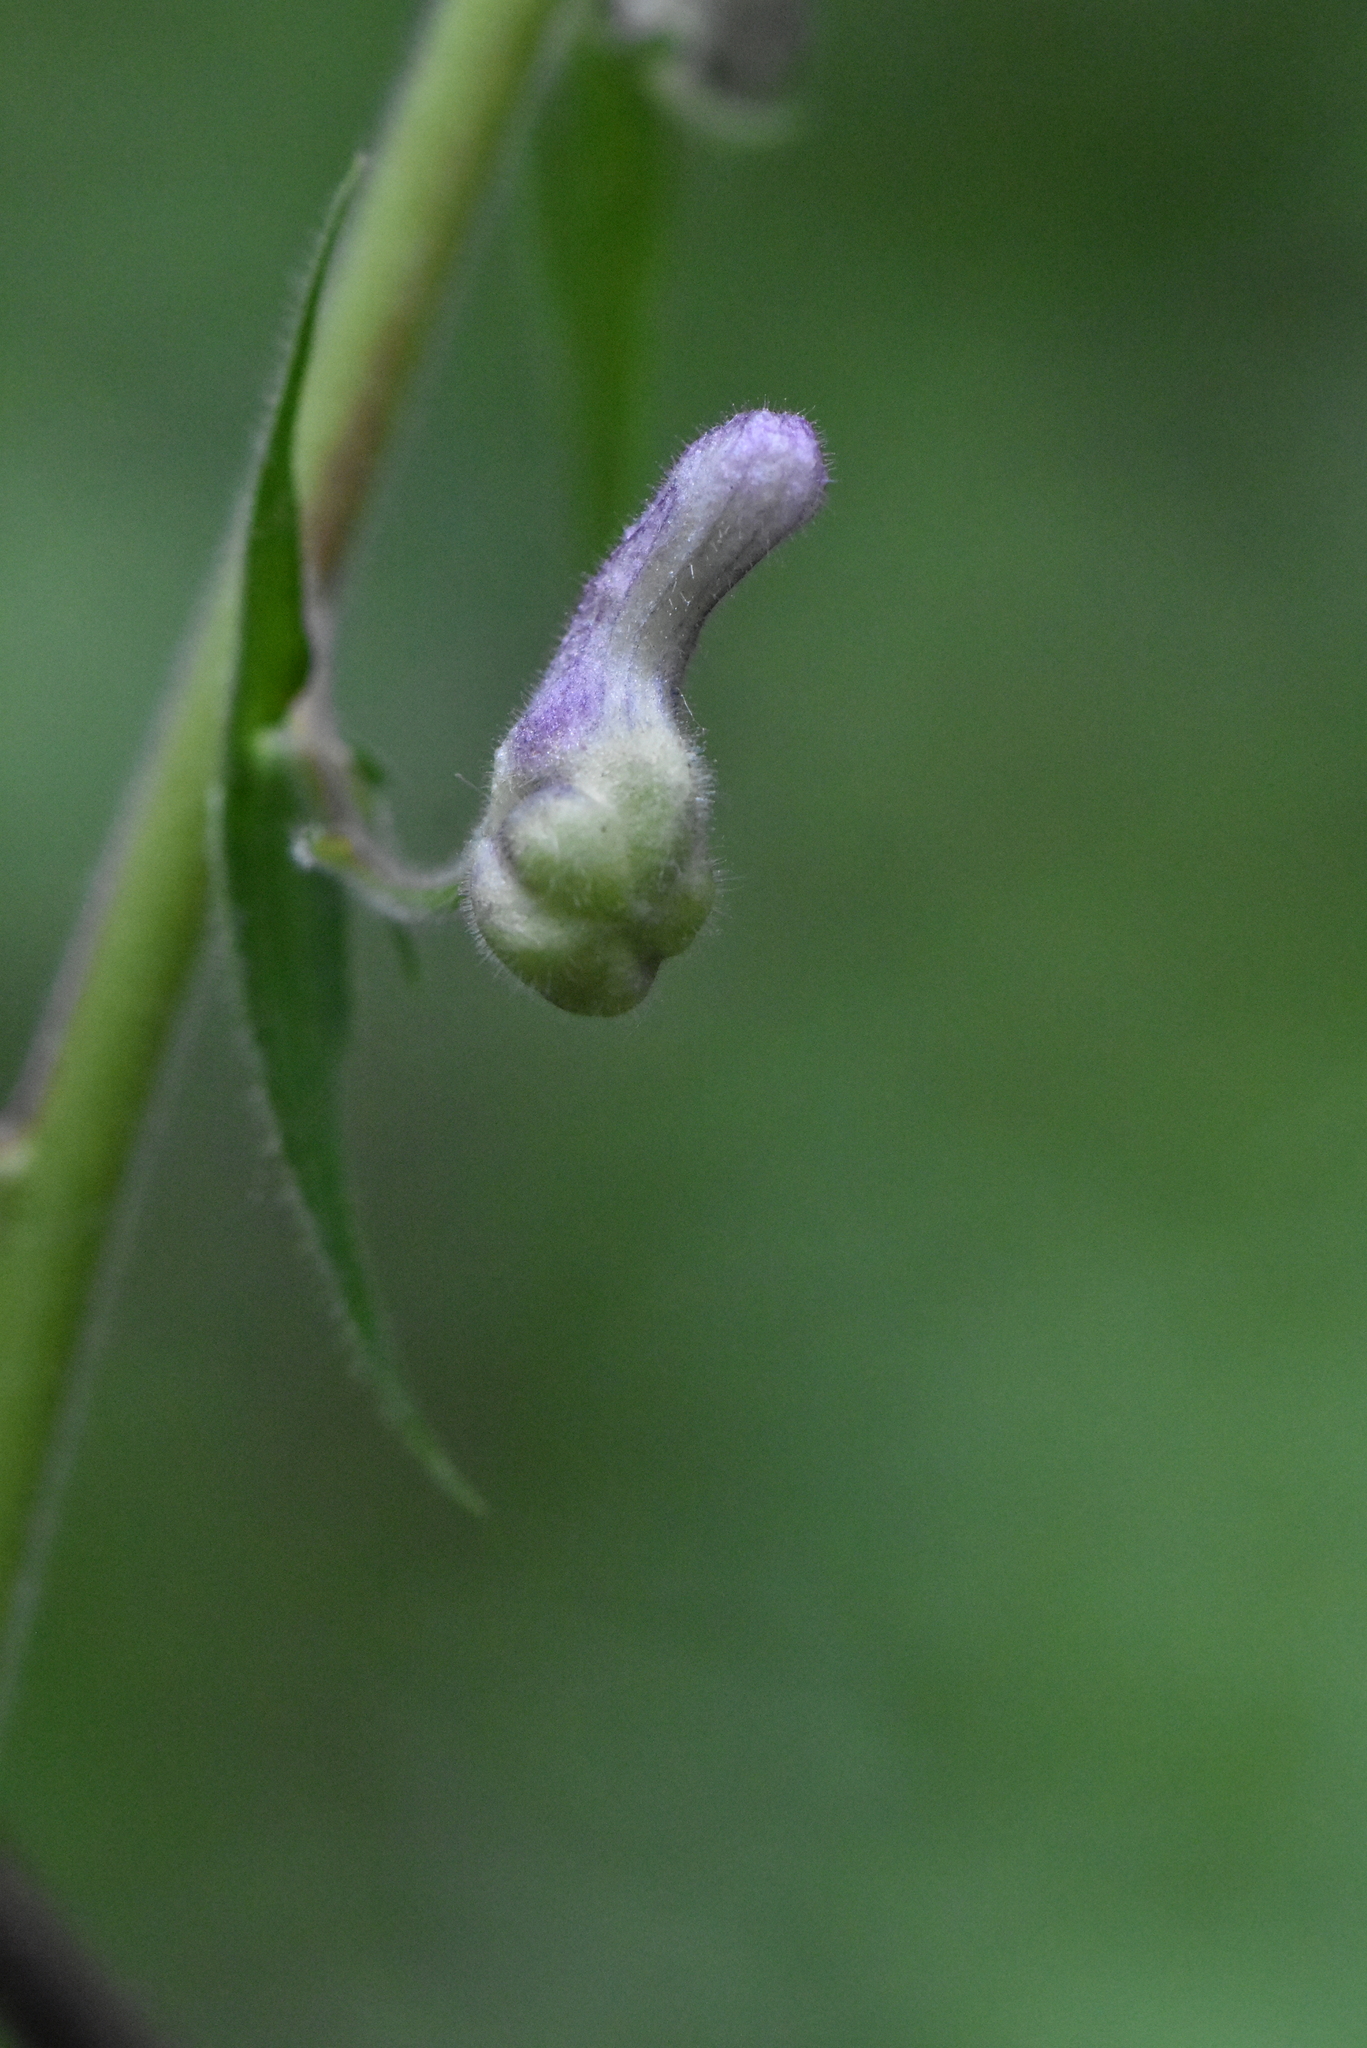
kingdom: Plantae
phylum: Tracheophyta
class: Magnoliopsida
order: Ranunculales
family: Ranunculaceae
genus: Aconitum
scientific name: Aconitum septentrionale
